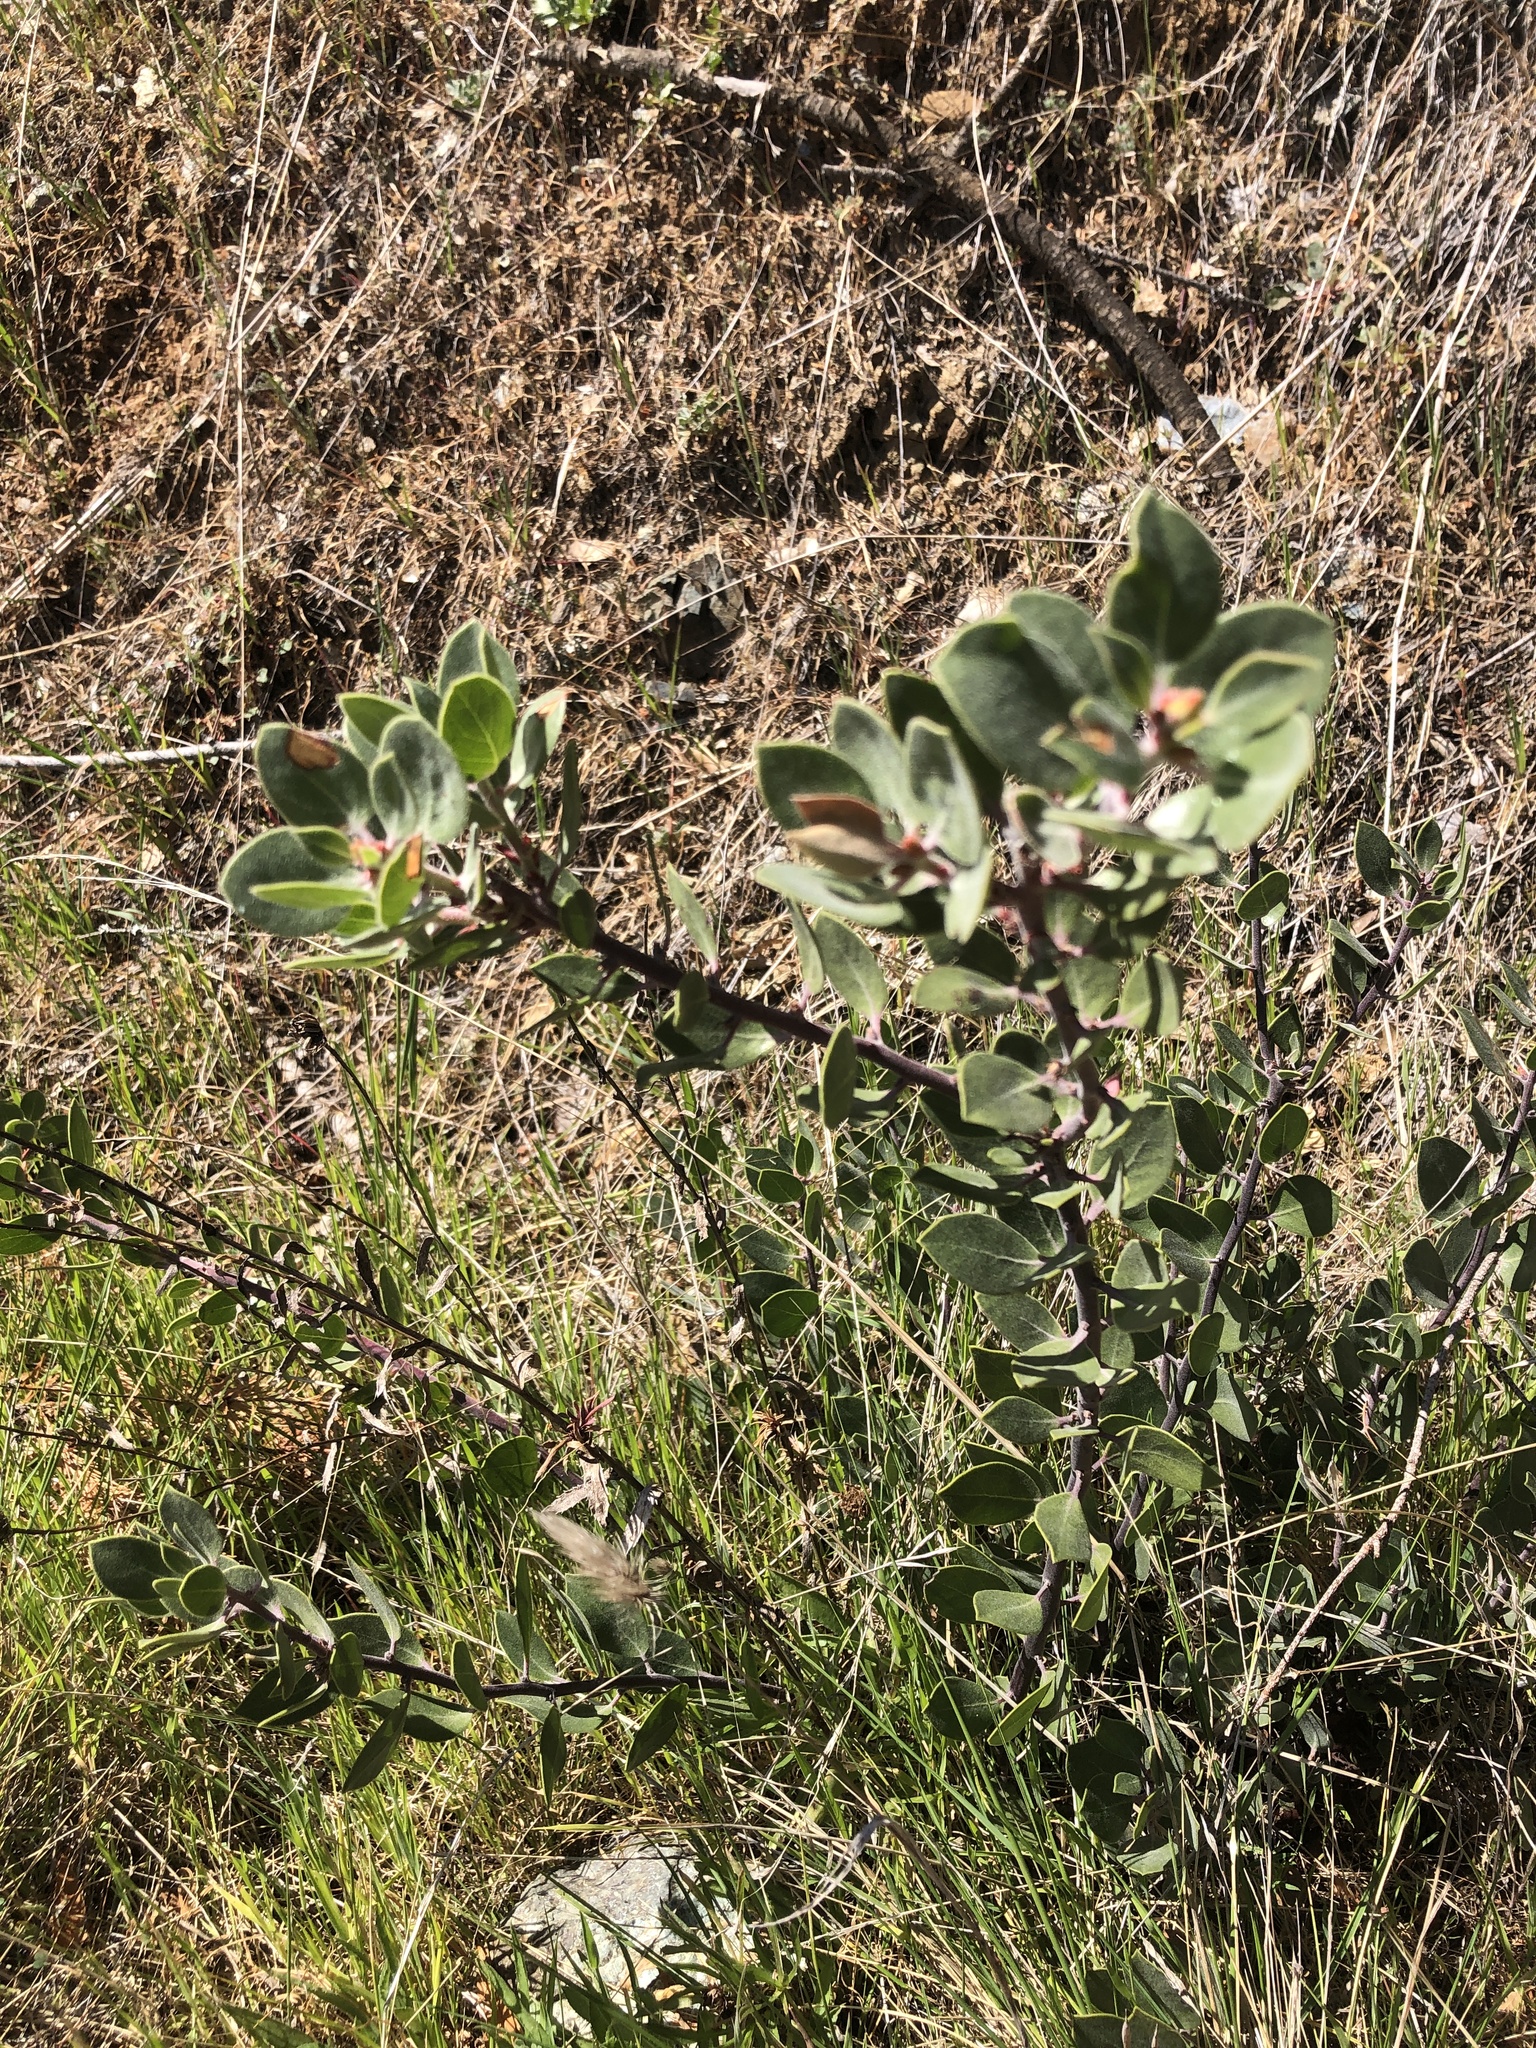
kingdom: Plantae
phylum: Tracheophyta
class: Magnoliopsida
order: Ericales
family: Ericaceae
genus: Arctostaphylos
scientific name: Arctostaphylos montana
